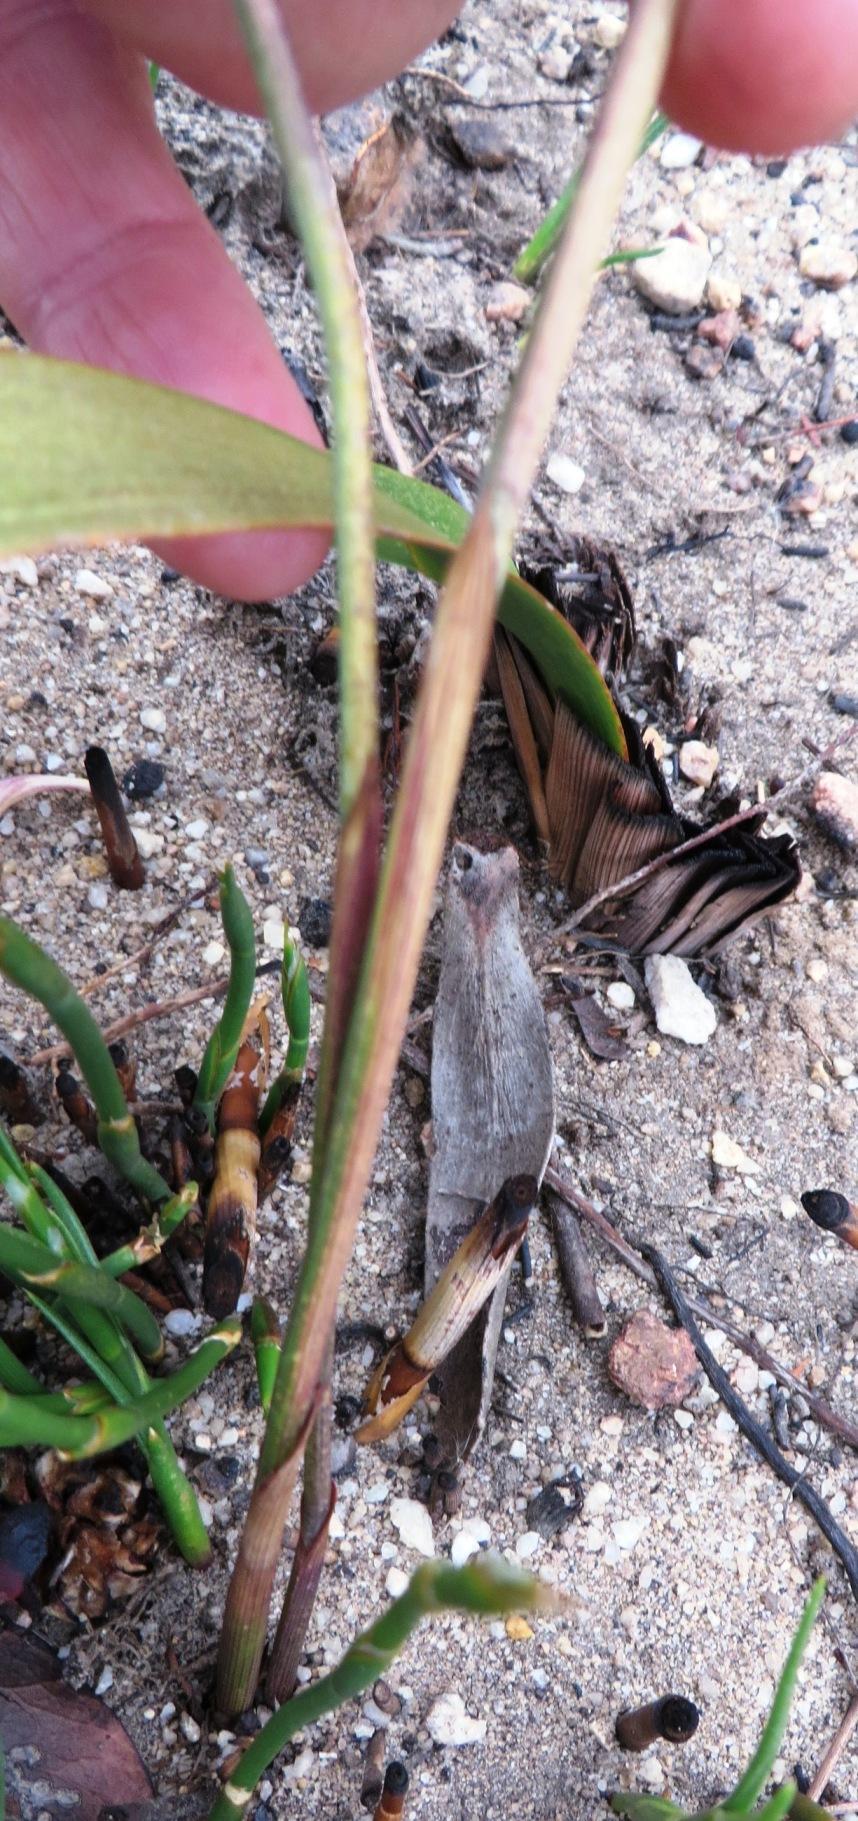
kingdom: Plantae
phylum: Tracheophyta
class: Liliopsida
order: Asparagales
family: Iridaceae
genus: Gladiolus
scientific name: Gladiolus martleyi
